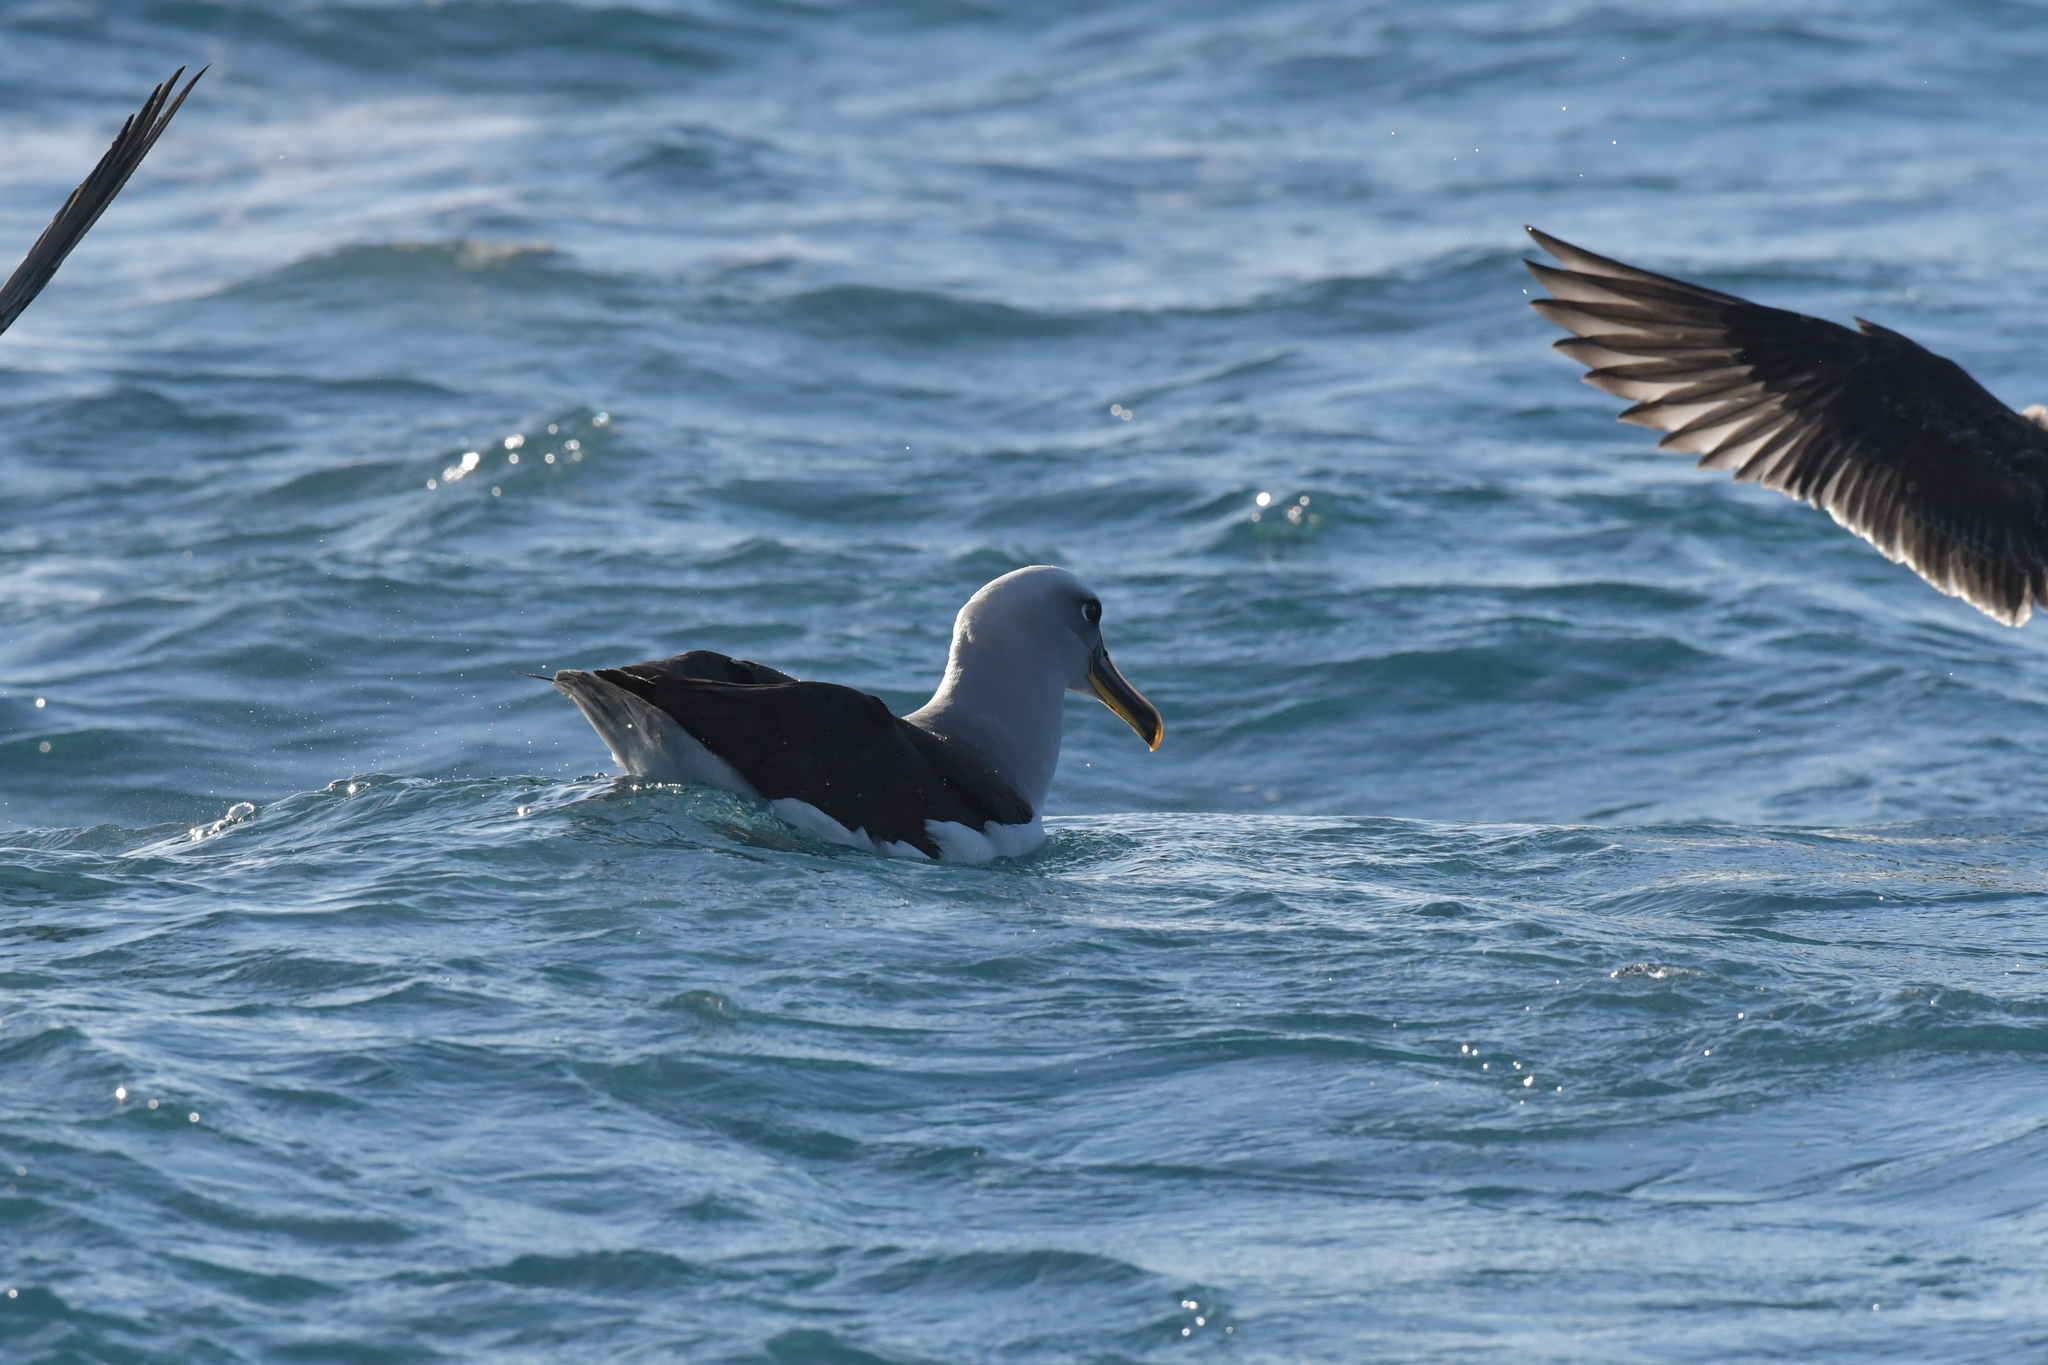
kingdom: Animalia
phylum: Chordata
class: Aves
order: Procellariiformes
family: Diomedeidae
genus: Thalassarche
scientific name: Thalassarche bulleri
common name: Buller's albatross
